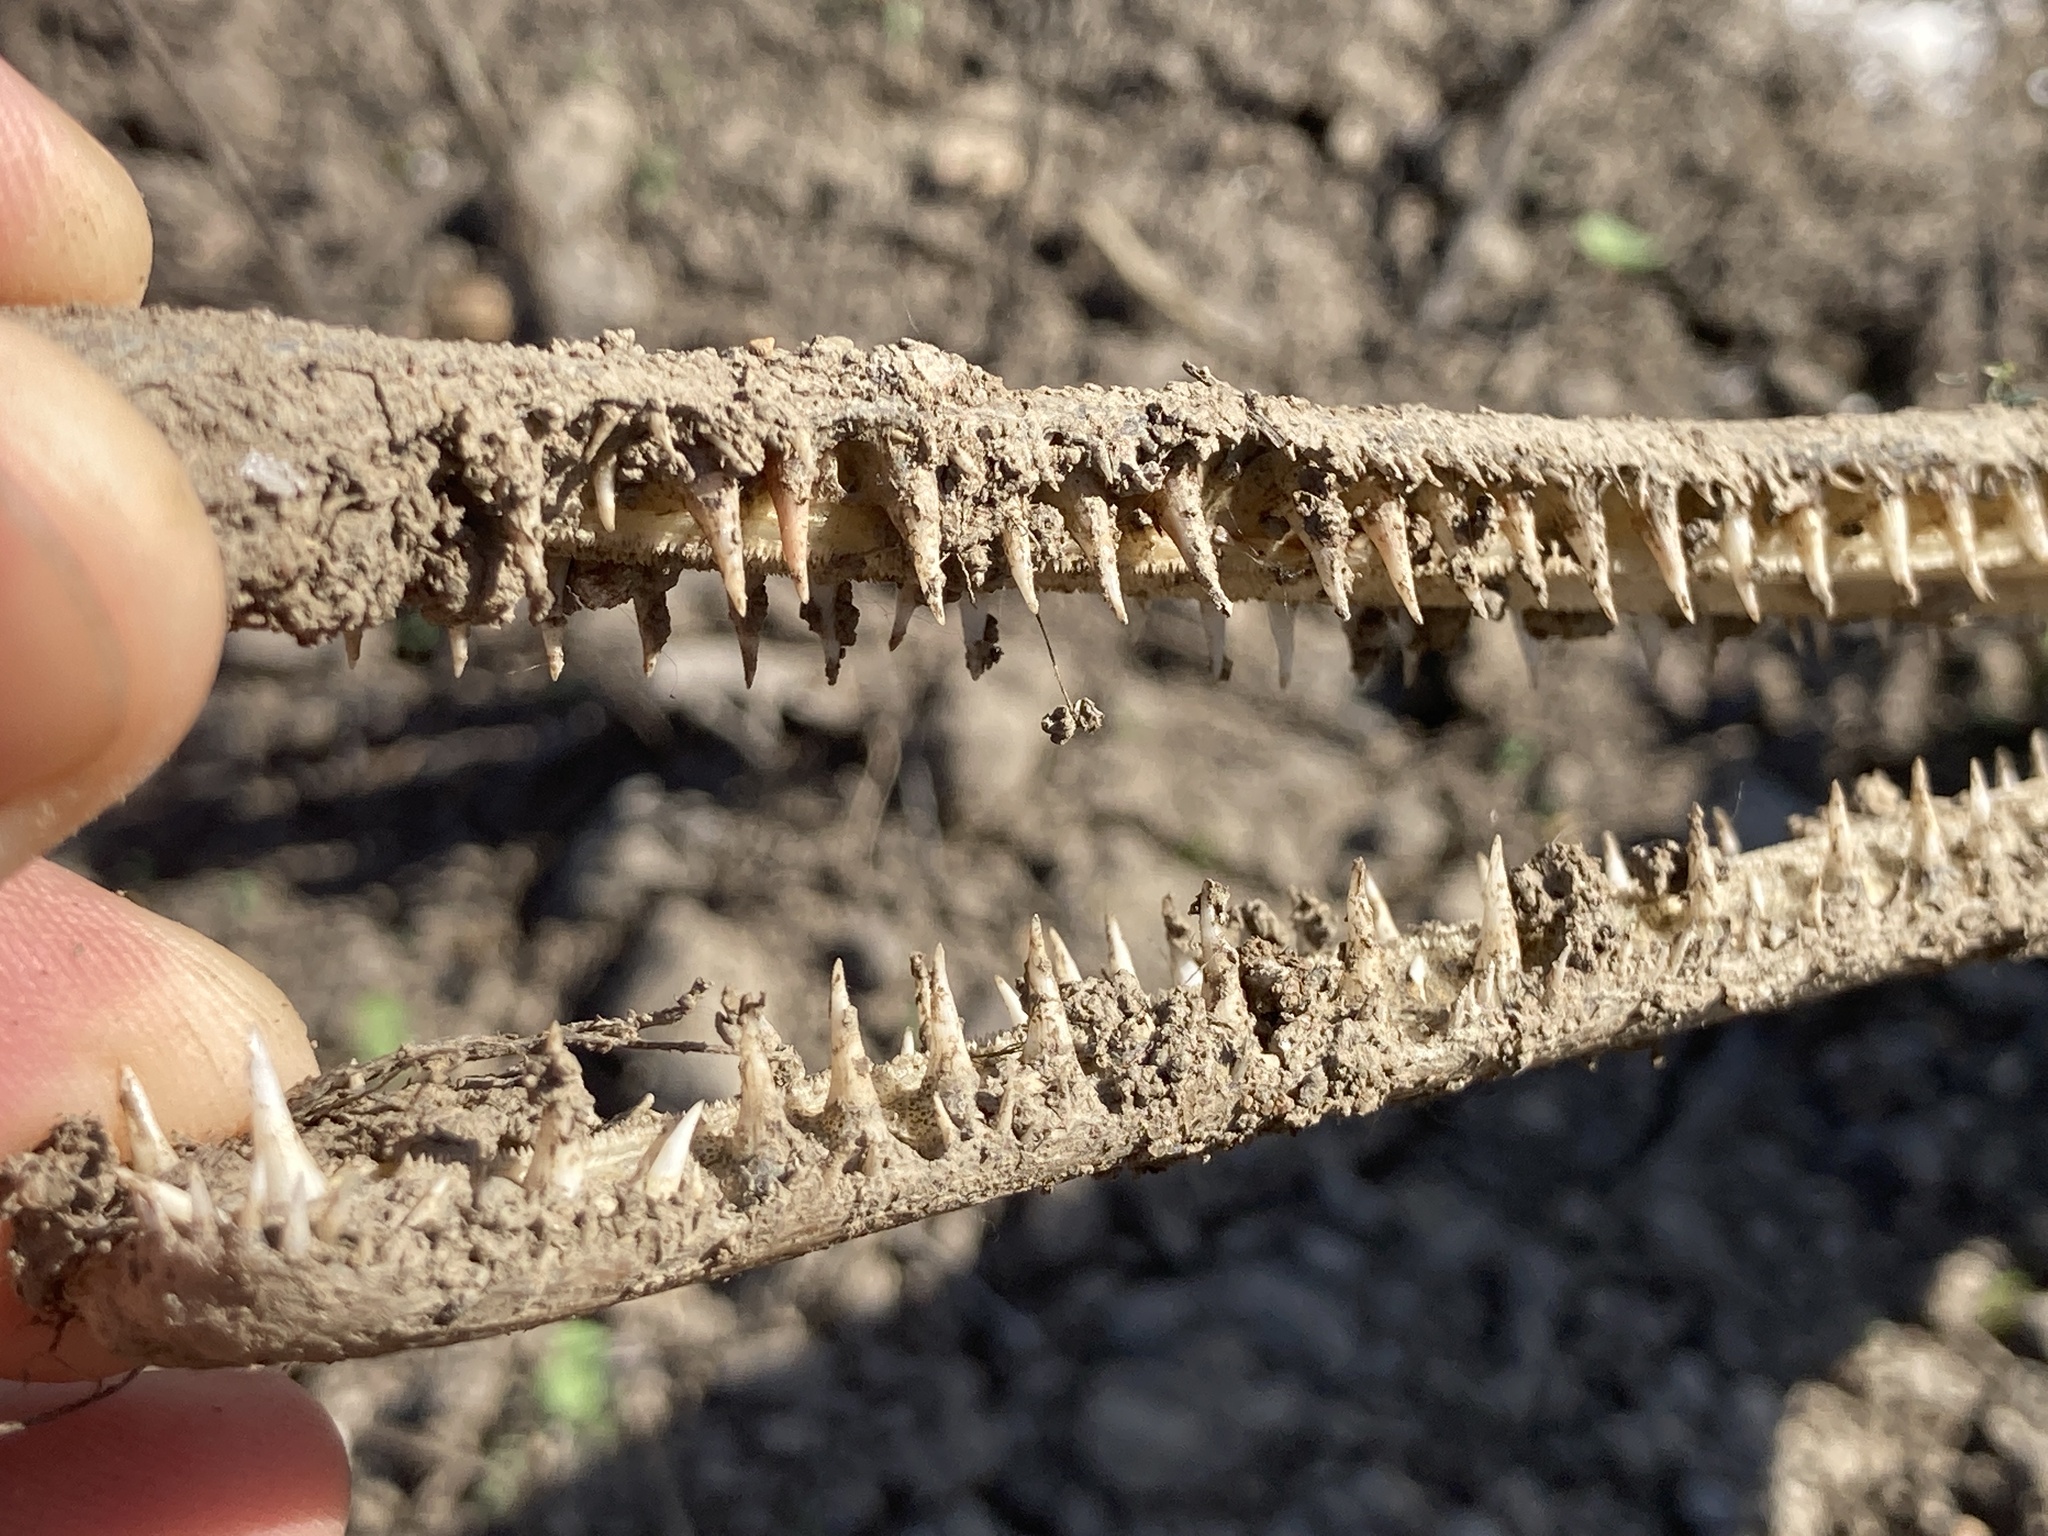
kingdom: Animalia
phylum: Chordata
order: Lepisosteiformes
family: Lepisosteidae
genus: Lepisosteus
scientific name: Lepisosteus osseus
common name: Longnose gar
